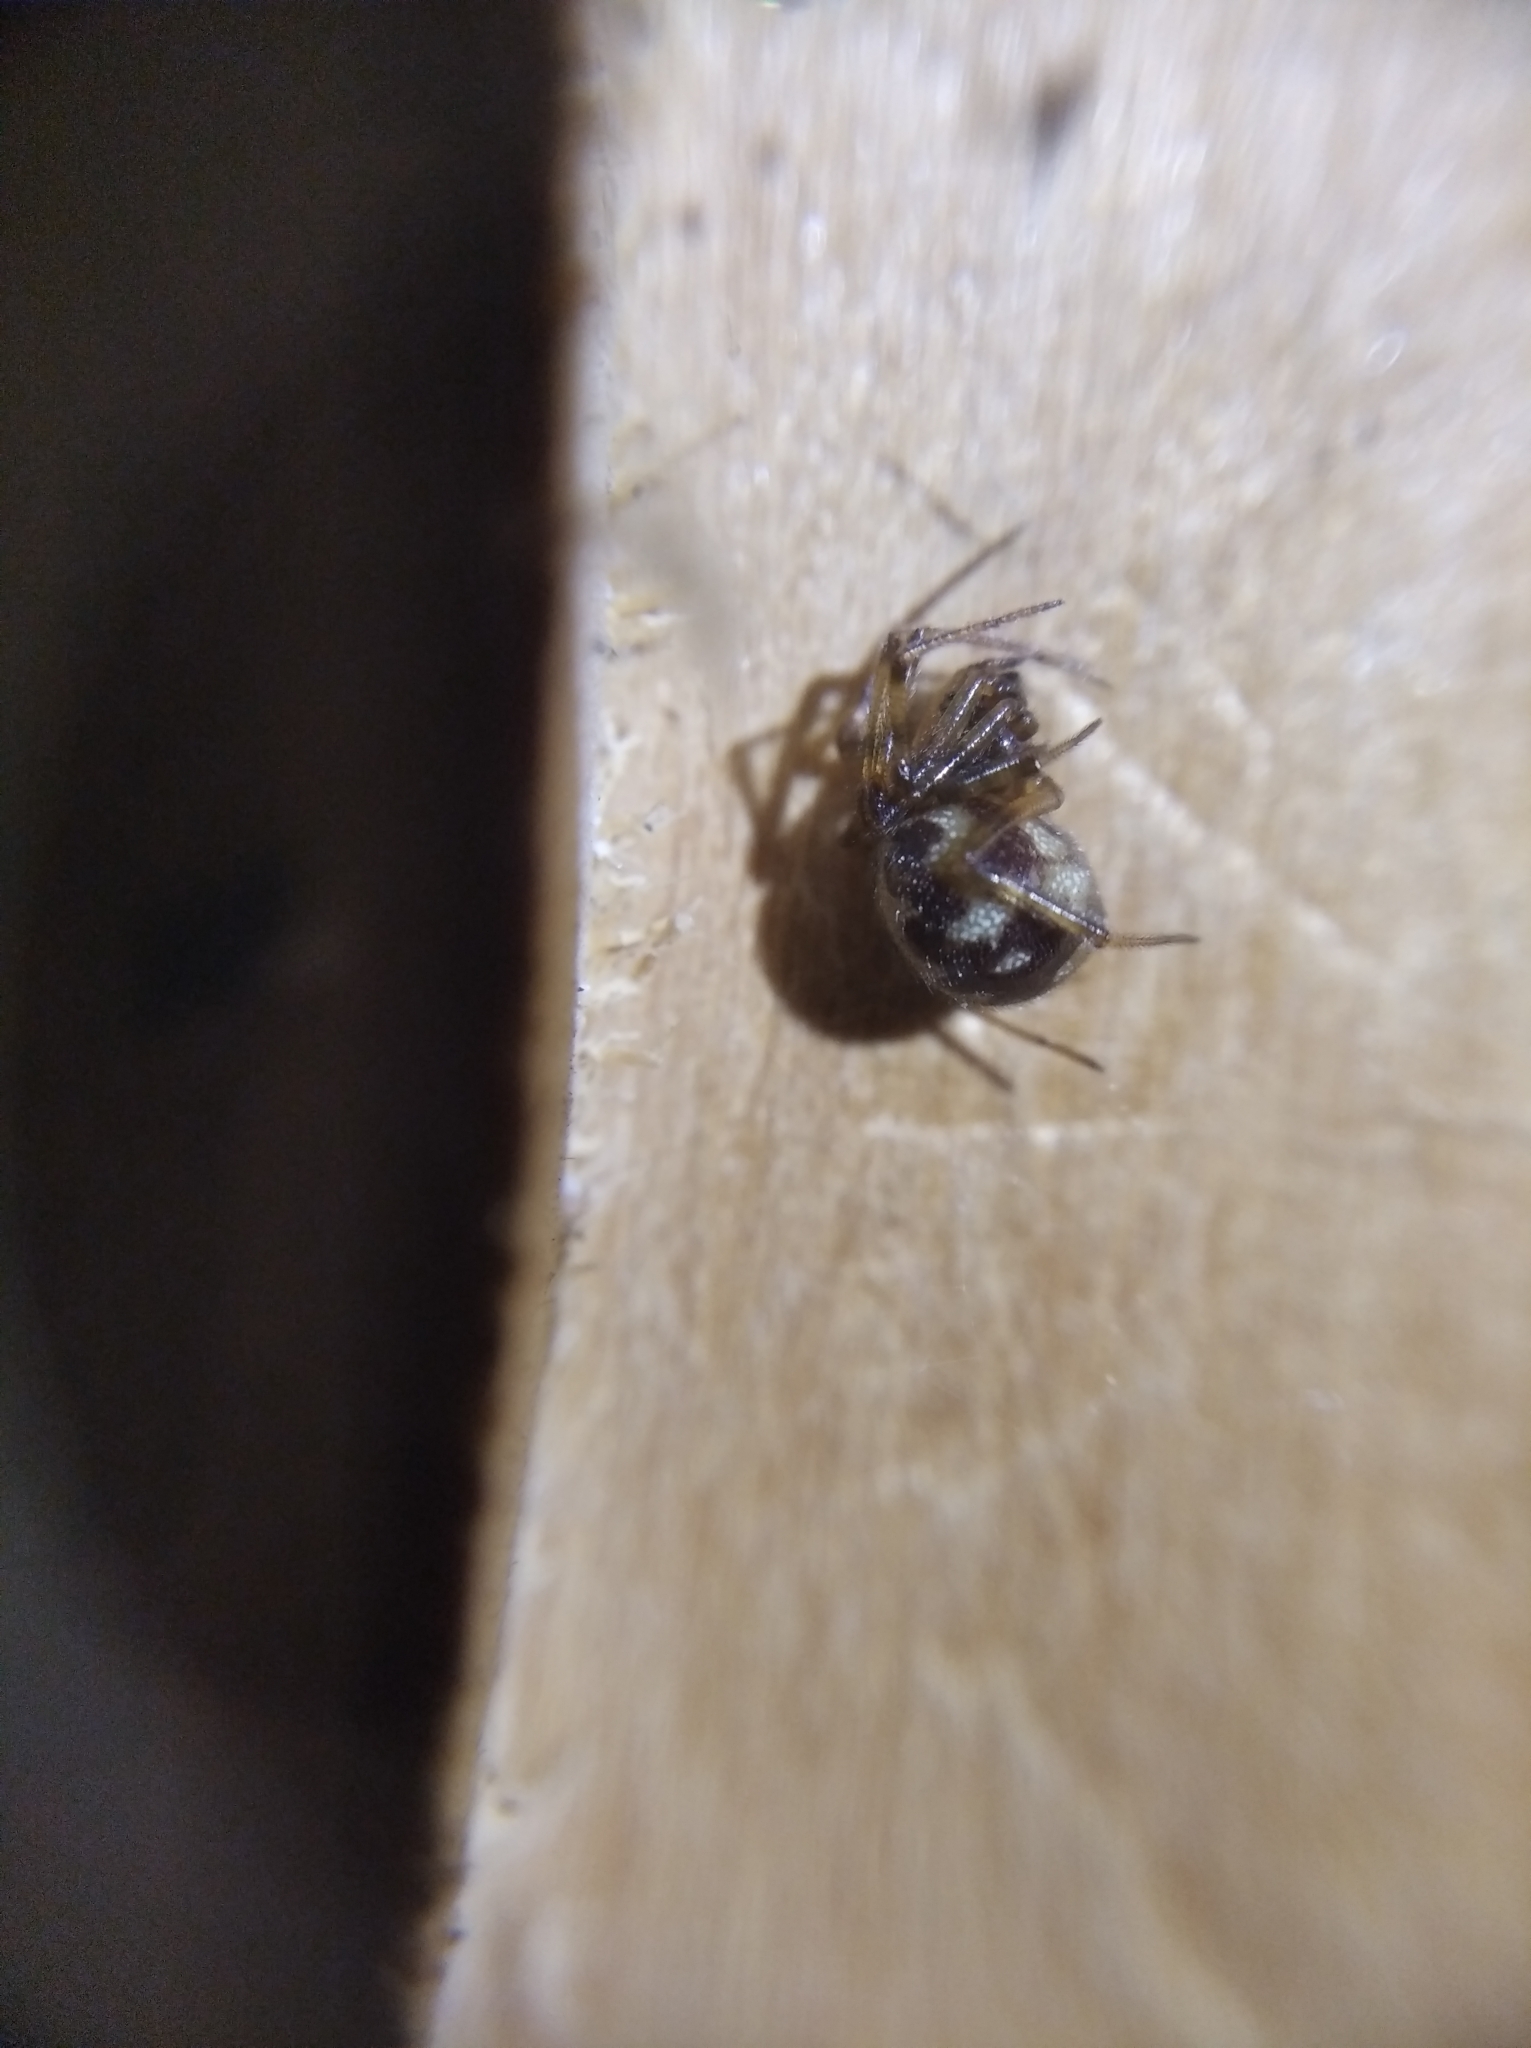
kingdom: Animalia
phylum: Arthropoda
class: Arachnida
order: Araneae
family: Theridiidae
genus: Steatoda
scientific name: Steatoda triangulosa
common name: Triangulate bud spider
